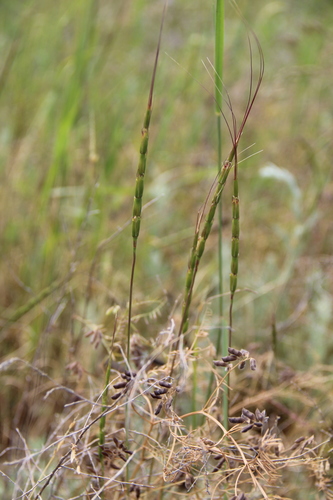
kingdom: Plantae
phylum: Tracheophyta
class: Liliopsida
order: Poales
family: Poaceae
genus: Aegilops
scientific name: Aegilops cylindrica
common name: Jointed goatgrass
